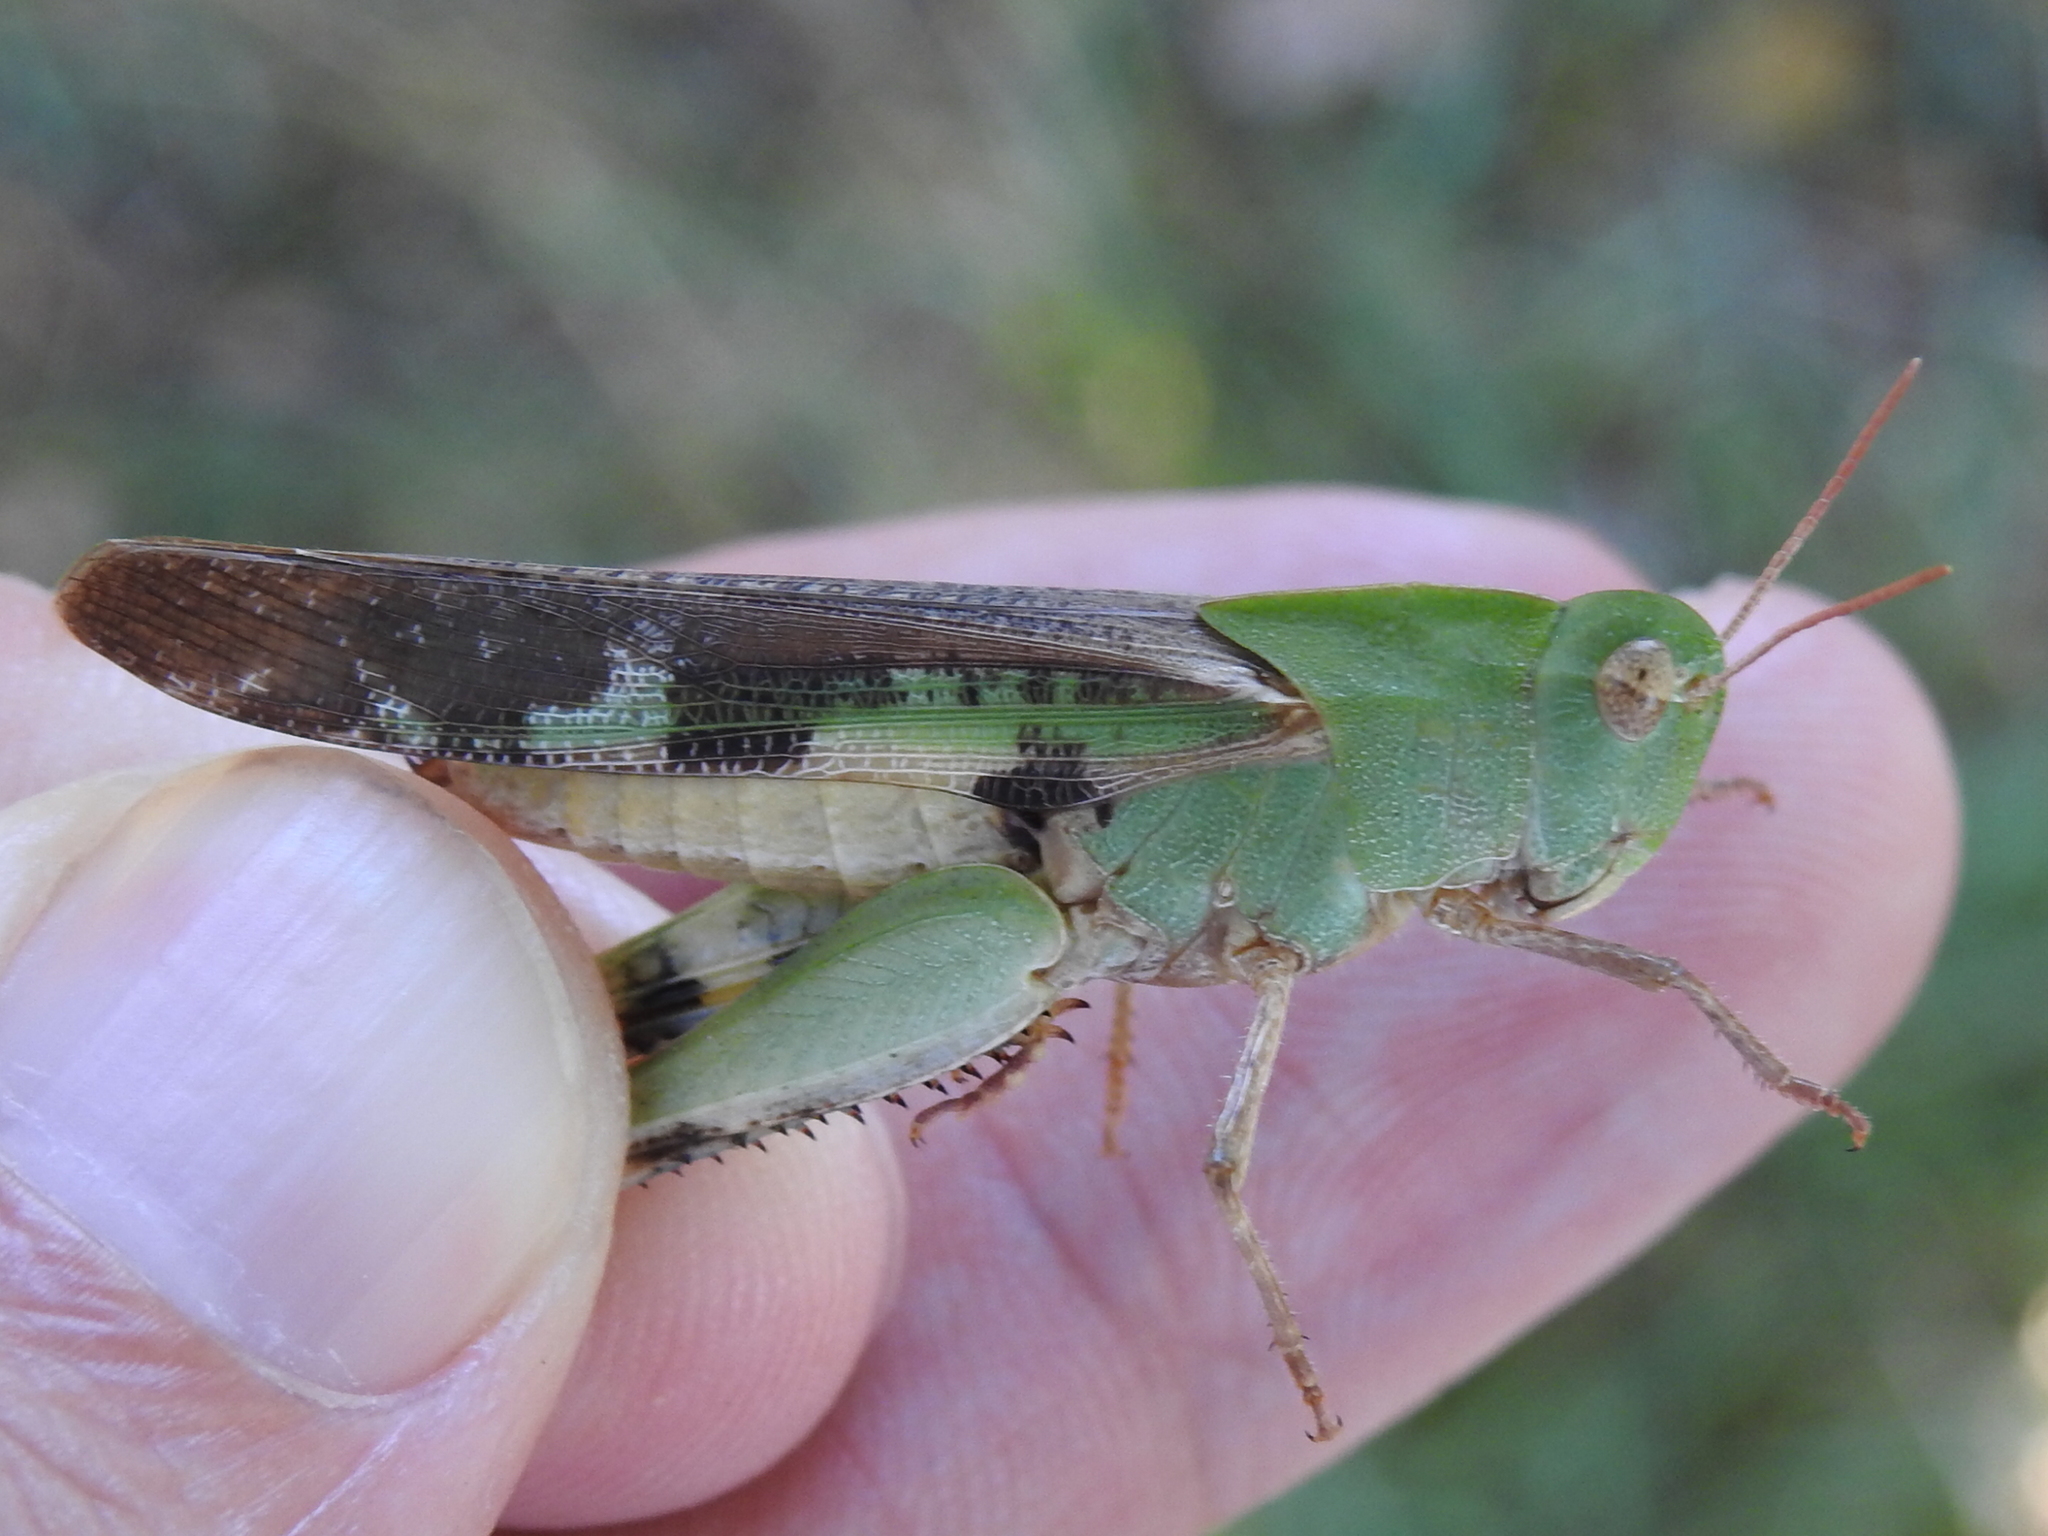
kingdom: Animalia
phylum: Arthropoda
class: Insecta
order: Orthoptera
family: Acrididae
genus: Chortophaga
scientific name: Chortophaga viridifasciata
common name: Green-striped grasshopper
